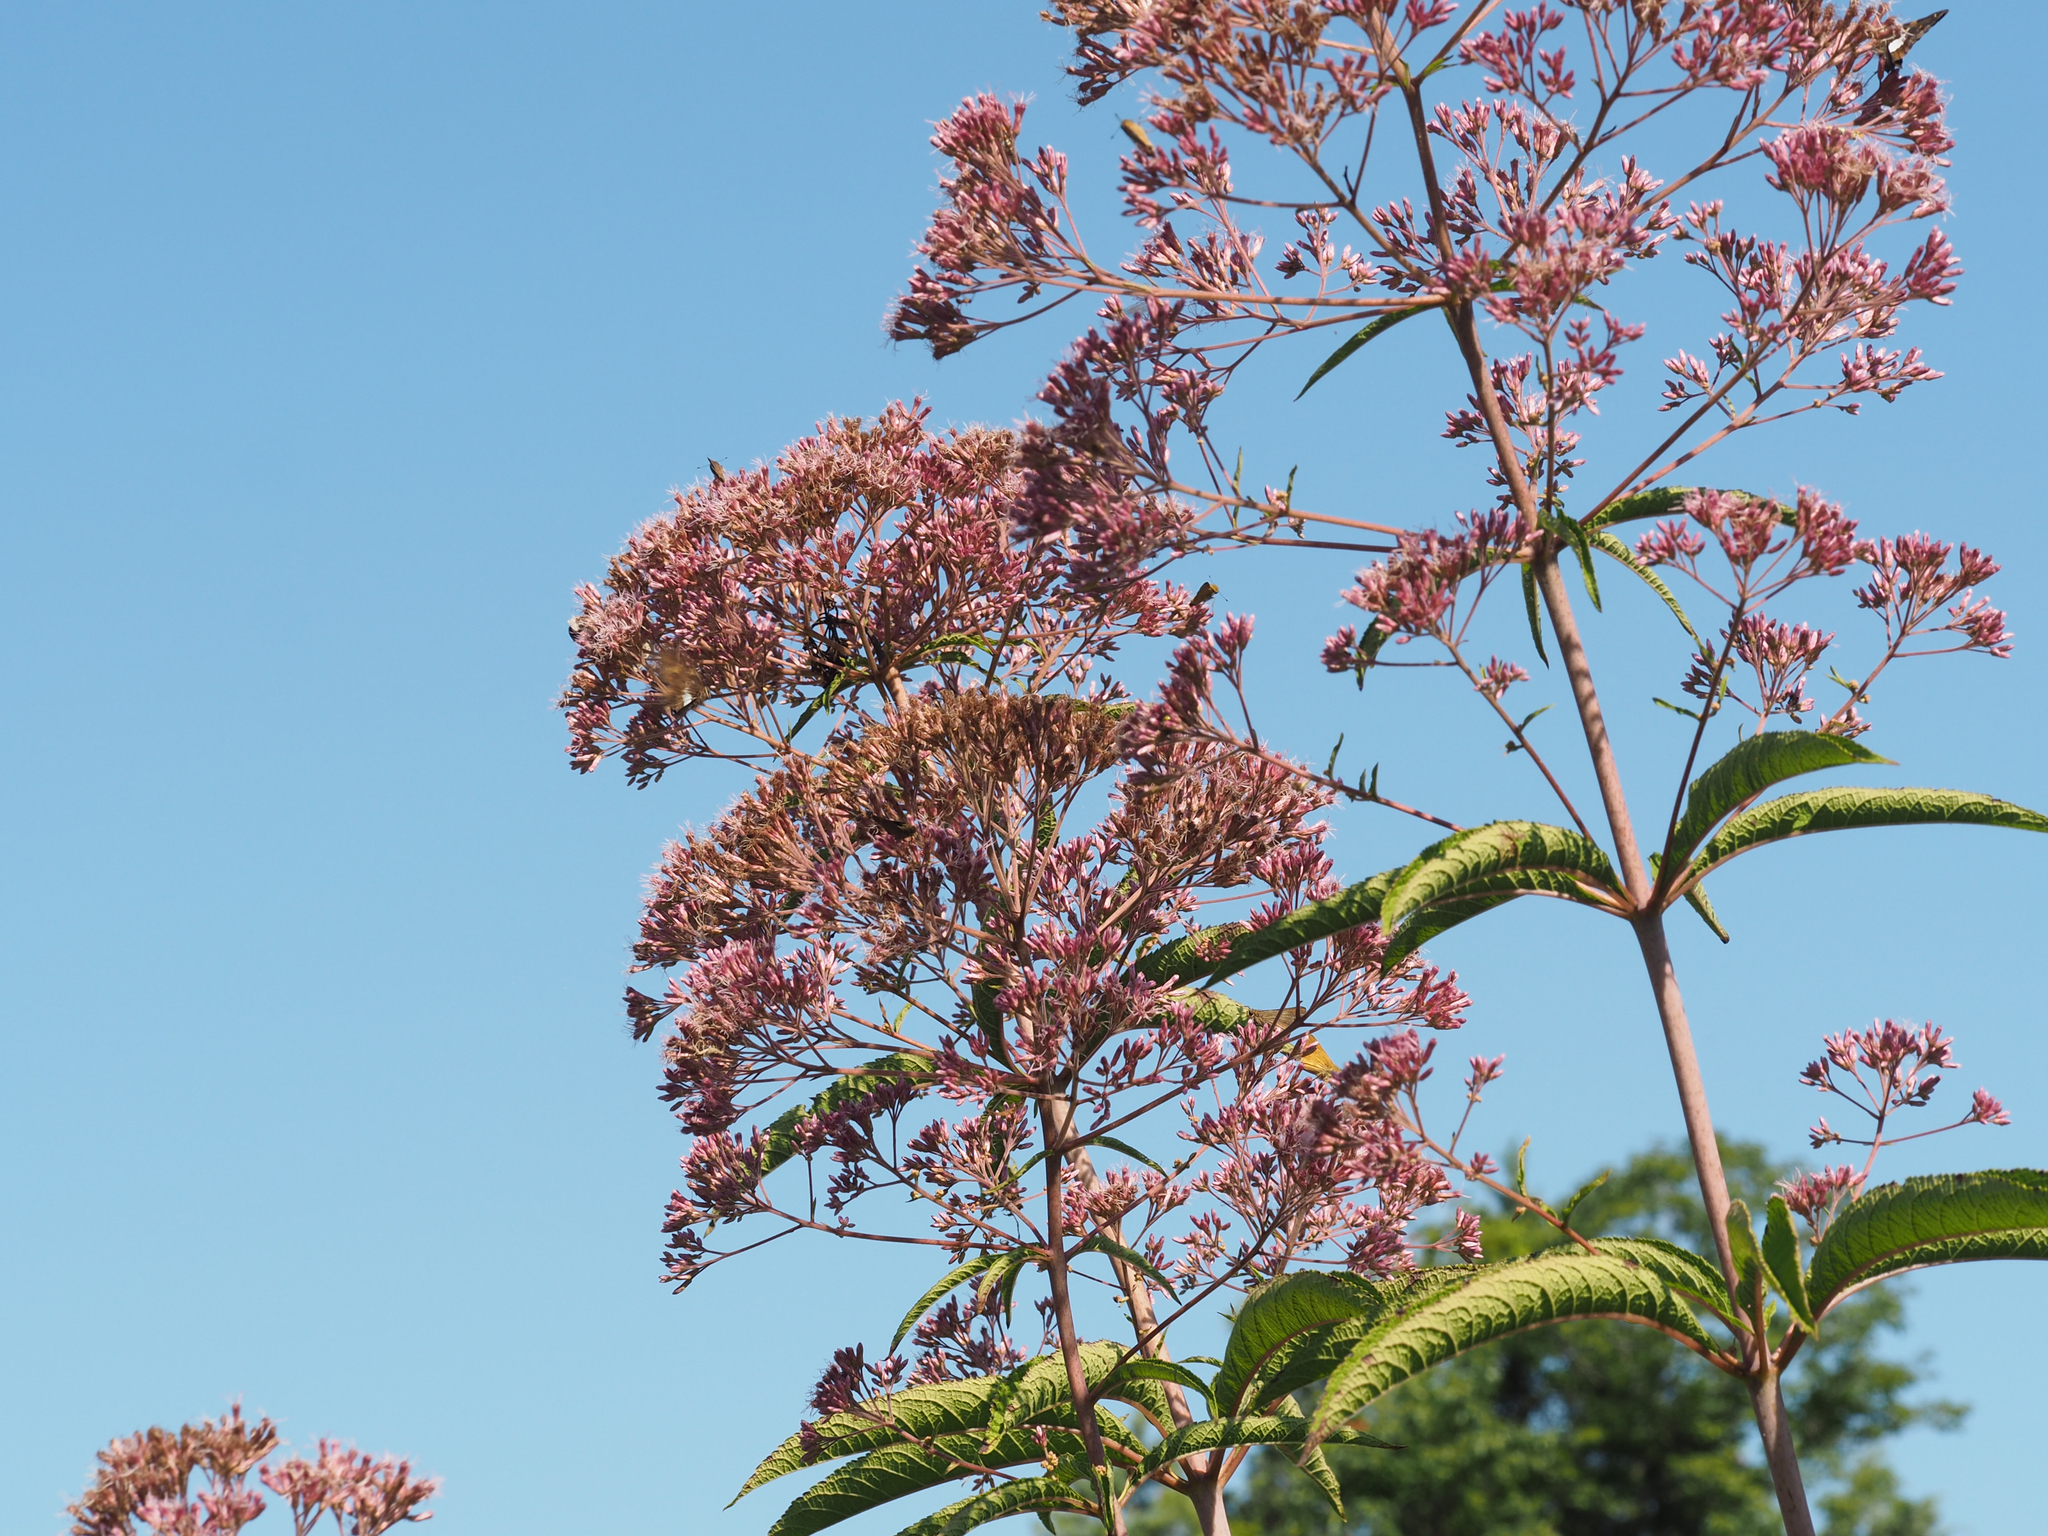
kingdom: Plantae
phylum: Tracheophyta
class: Magnoliopsida
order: Asterales
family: Asteraceae
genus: Eutrochium
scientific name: Eutrochium fistulosum
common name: Trumpetweed
